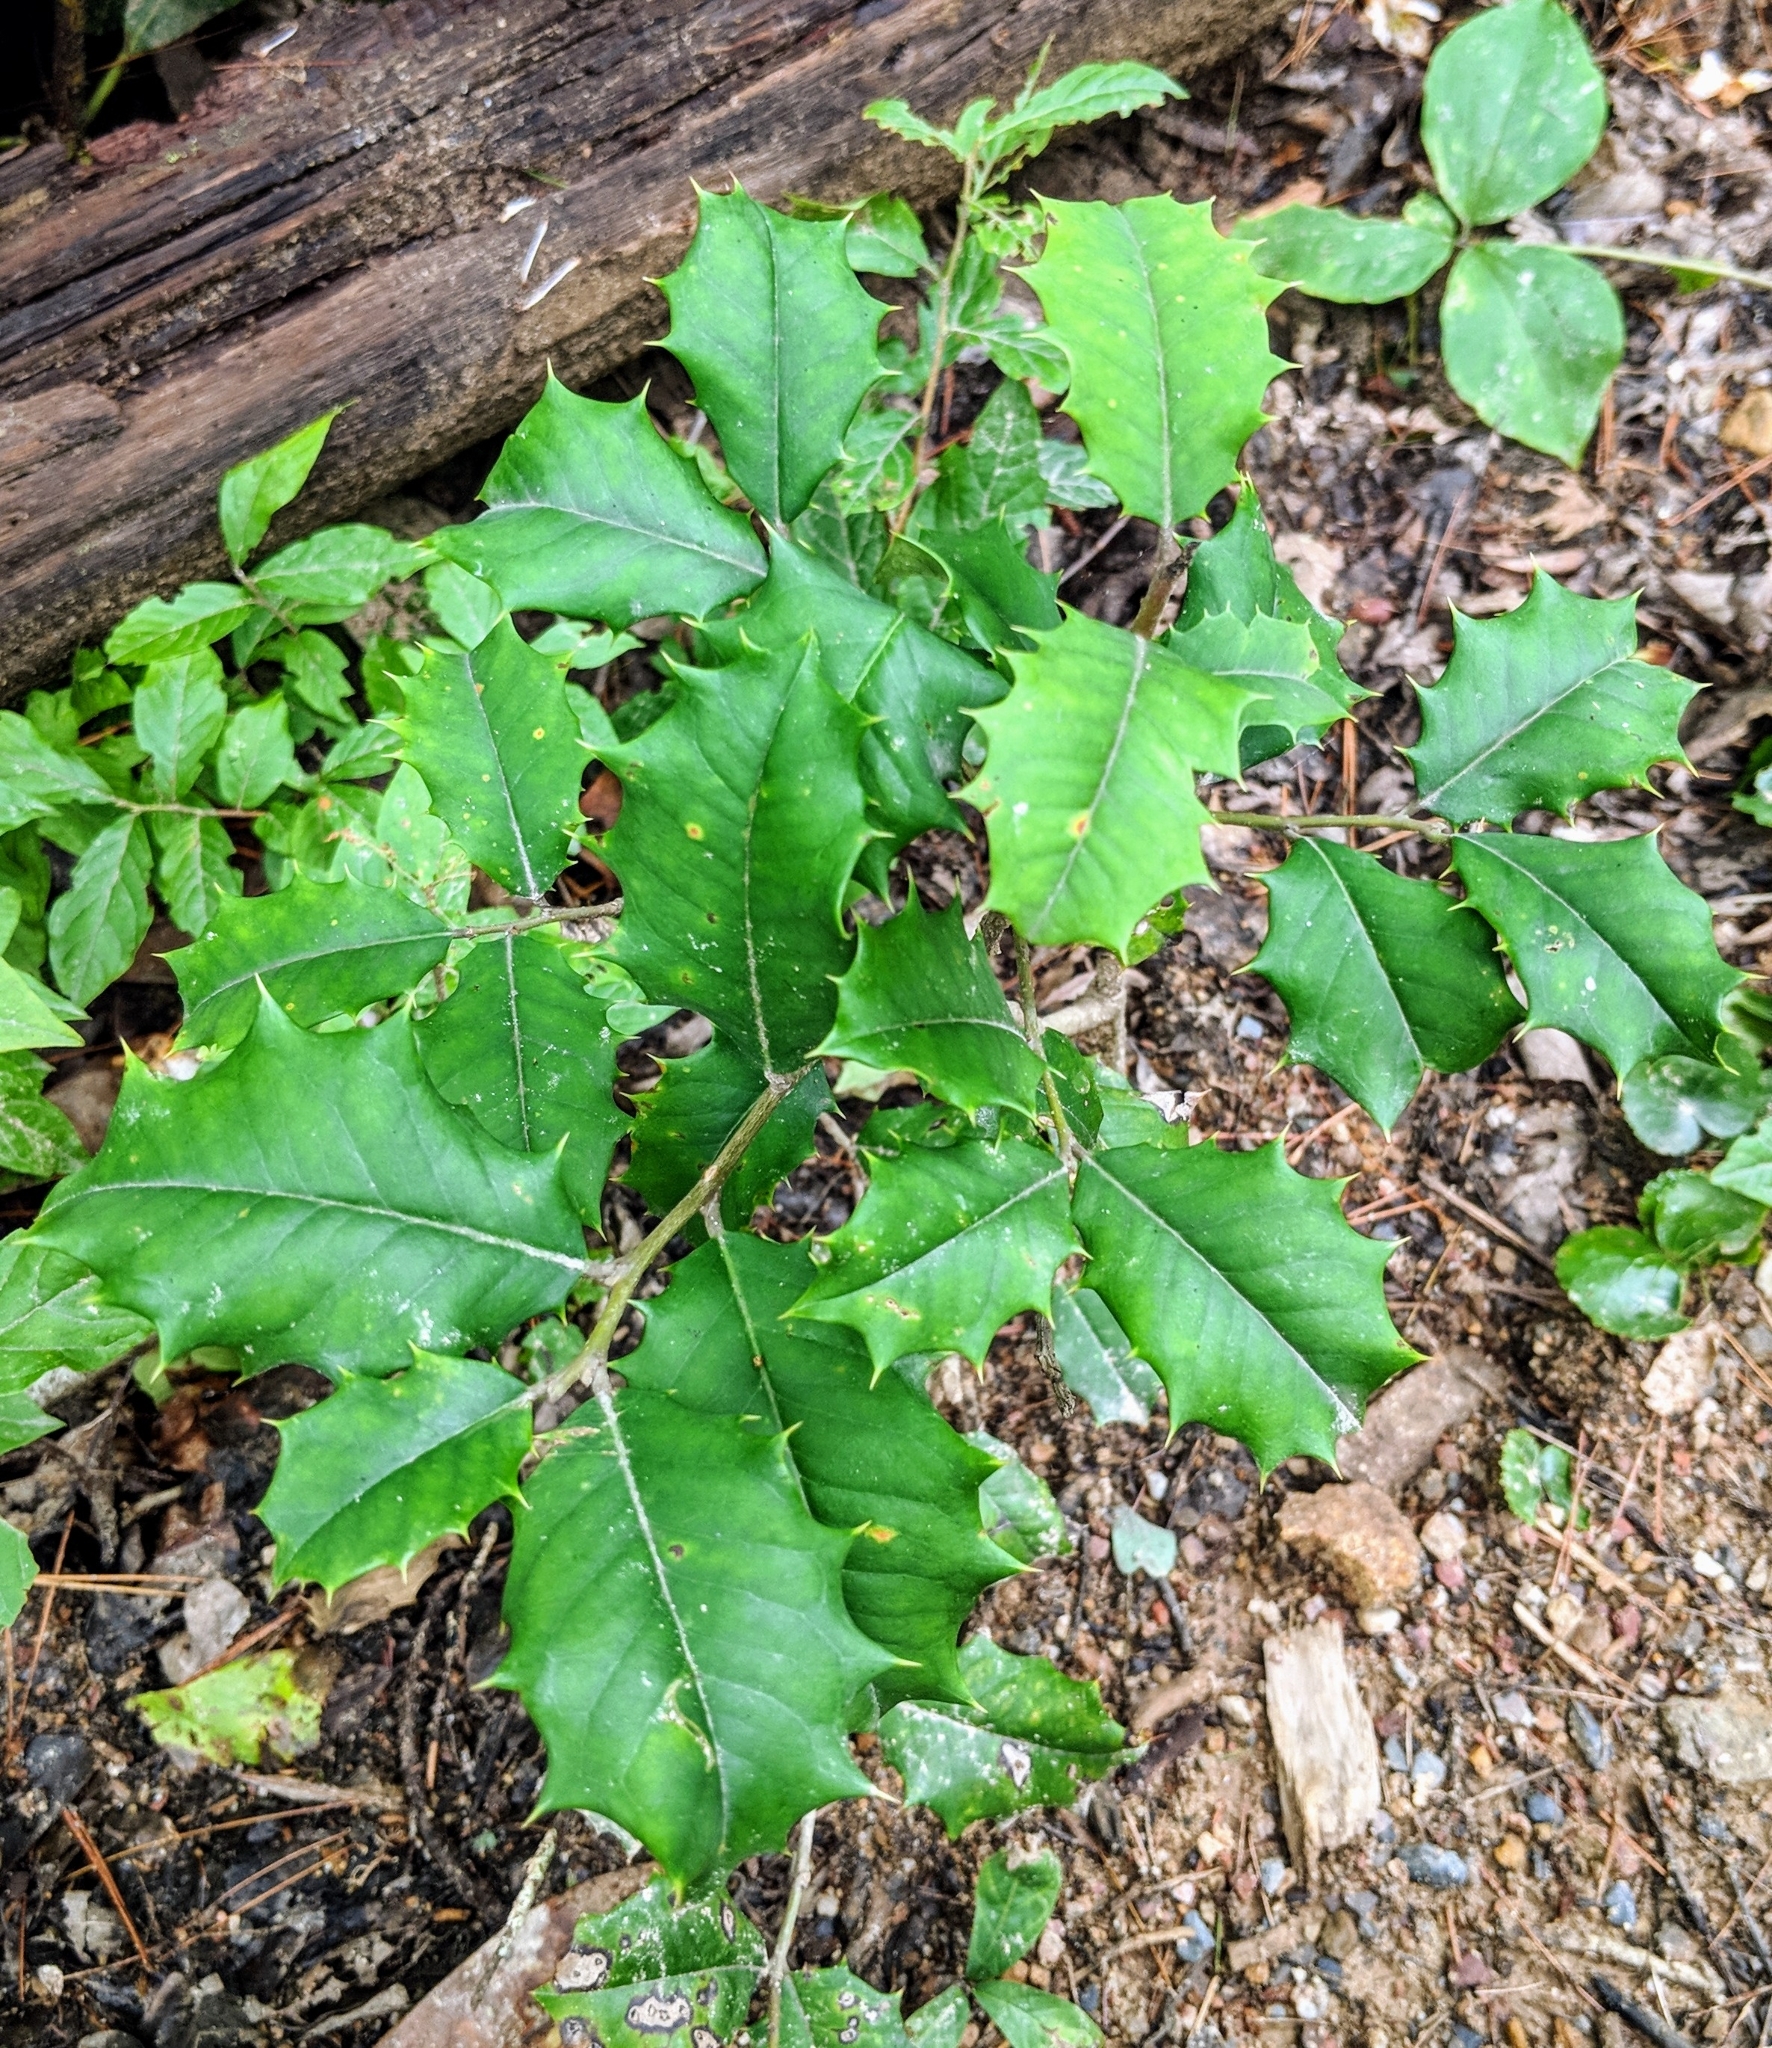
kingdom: Plantae
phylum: Tracheophyta
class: Magnoliopsida
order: Aquifoliales
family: Aquifoliaceae
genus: Ilex
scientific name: Ilex opaca
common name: American holly
